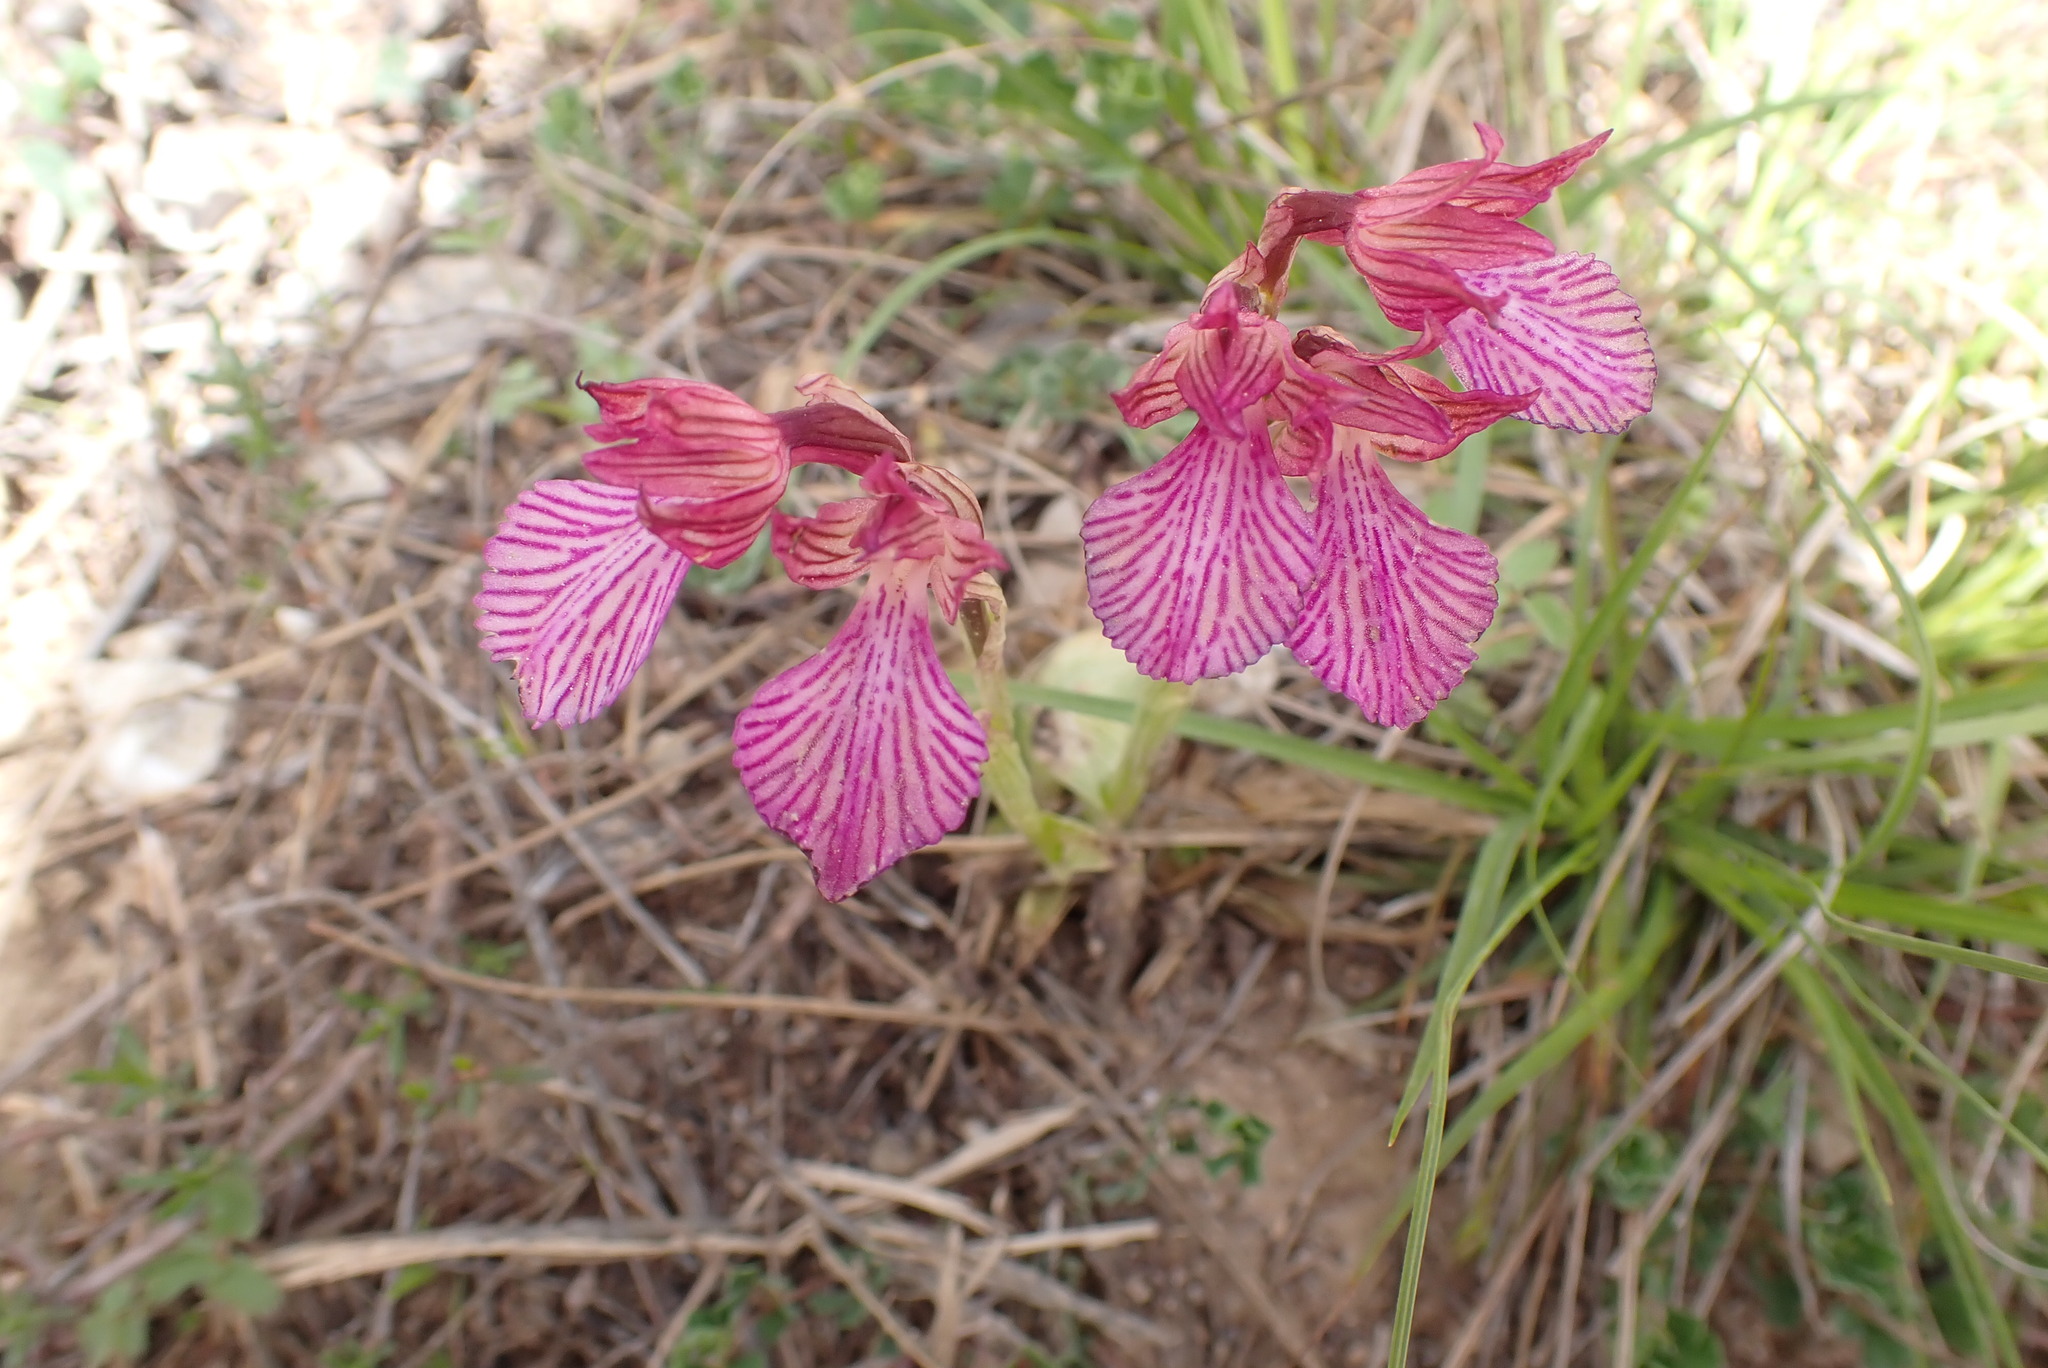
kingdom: Plantae
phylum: Tracheophyta
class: Liliopsida
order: Asparagales
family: Orchidaceae
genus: Anacamptis
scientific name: Anacamptis papilionacea
